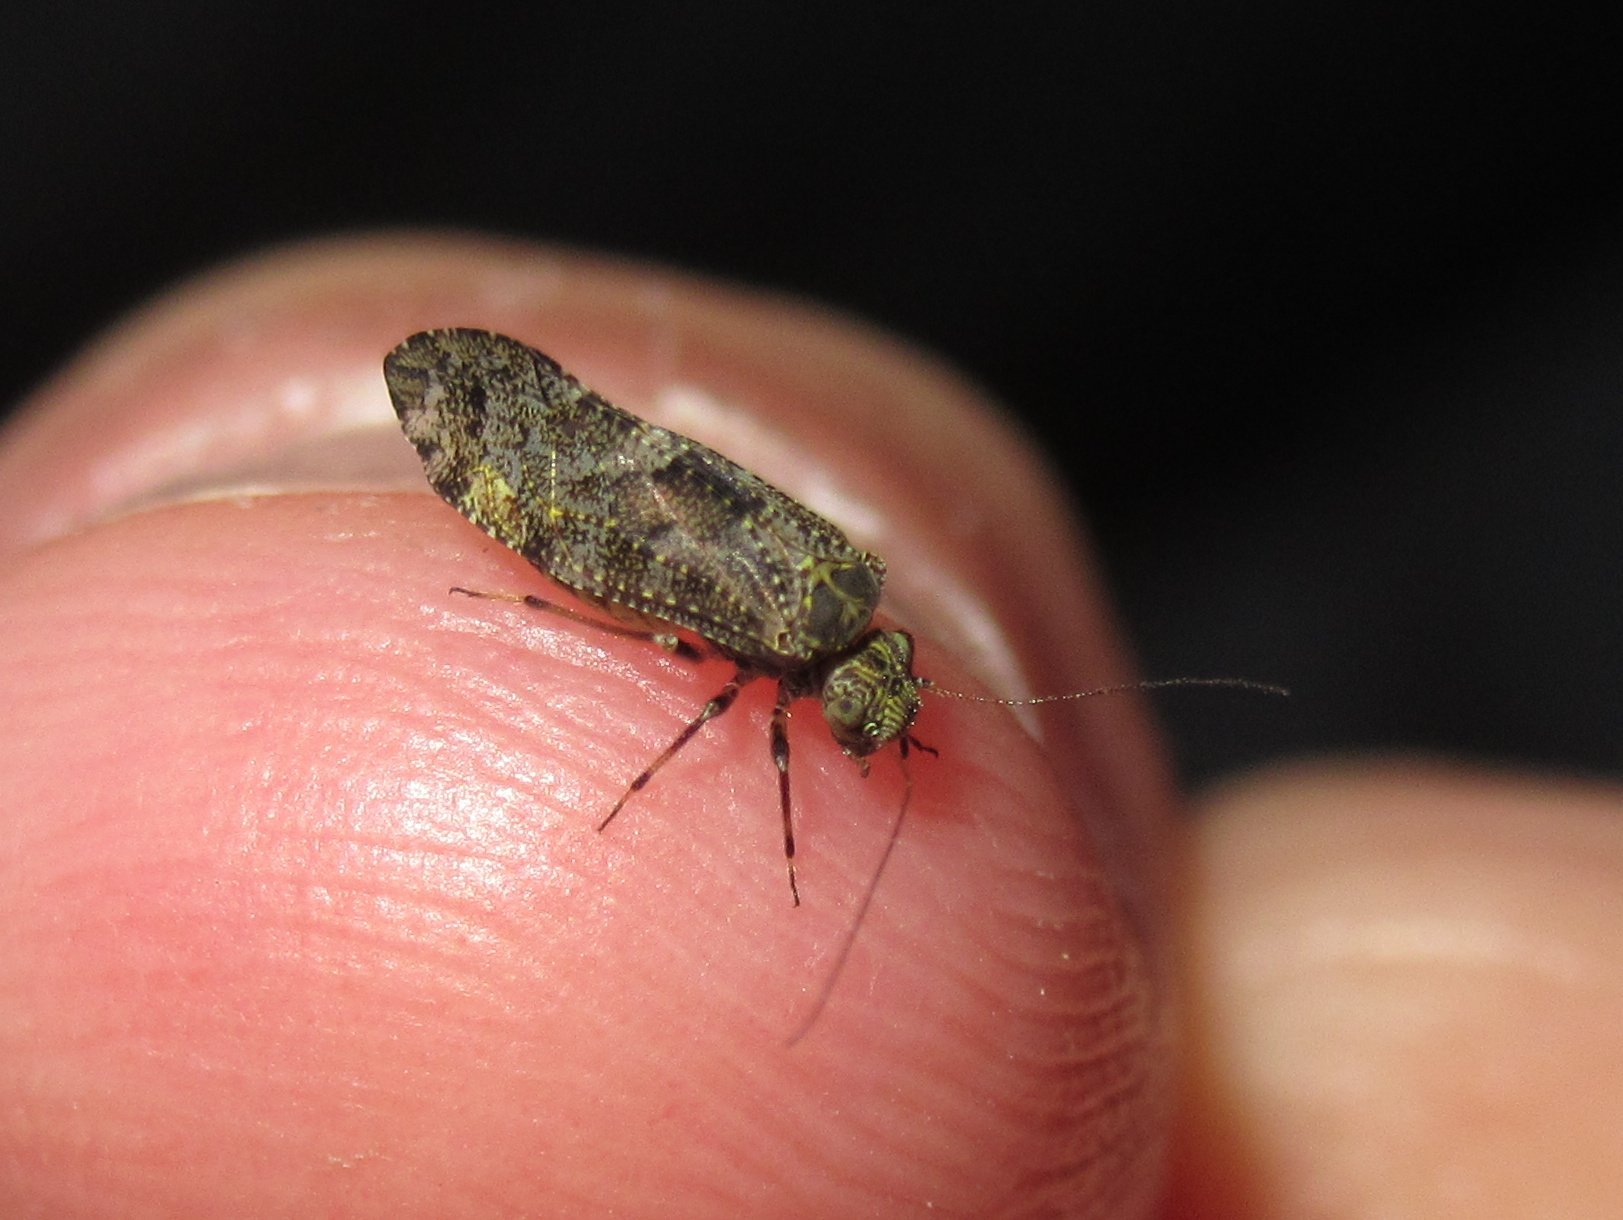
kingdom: Animalia
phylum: Arthropoda
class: Insecta
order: Psocodea
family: Myopsocidae
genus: Nimbopsocus
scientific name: Nimbopsocus australis
